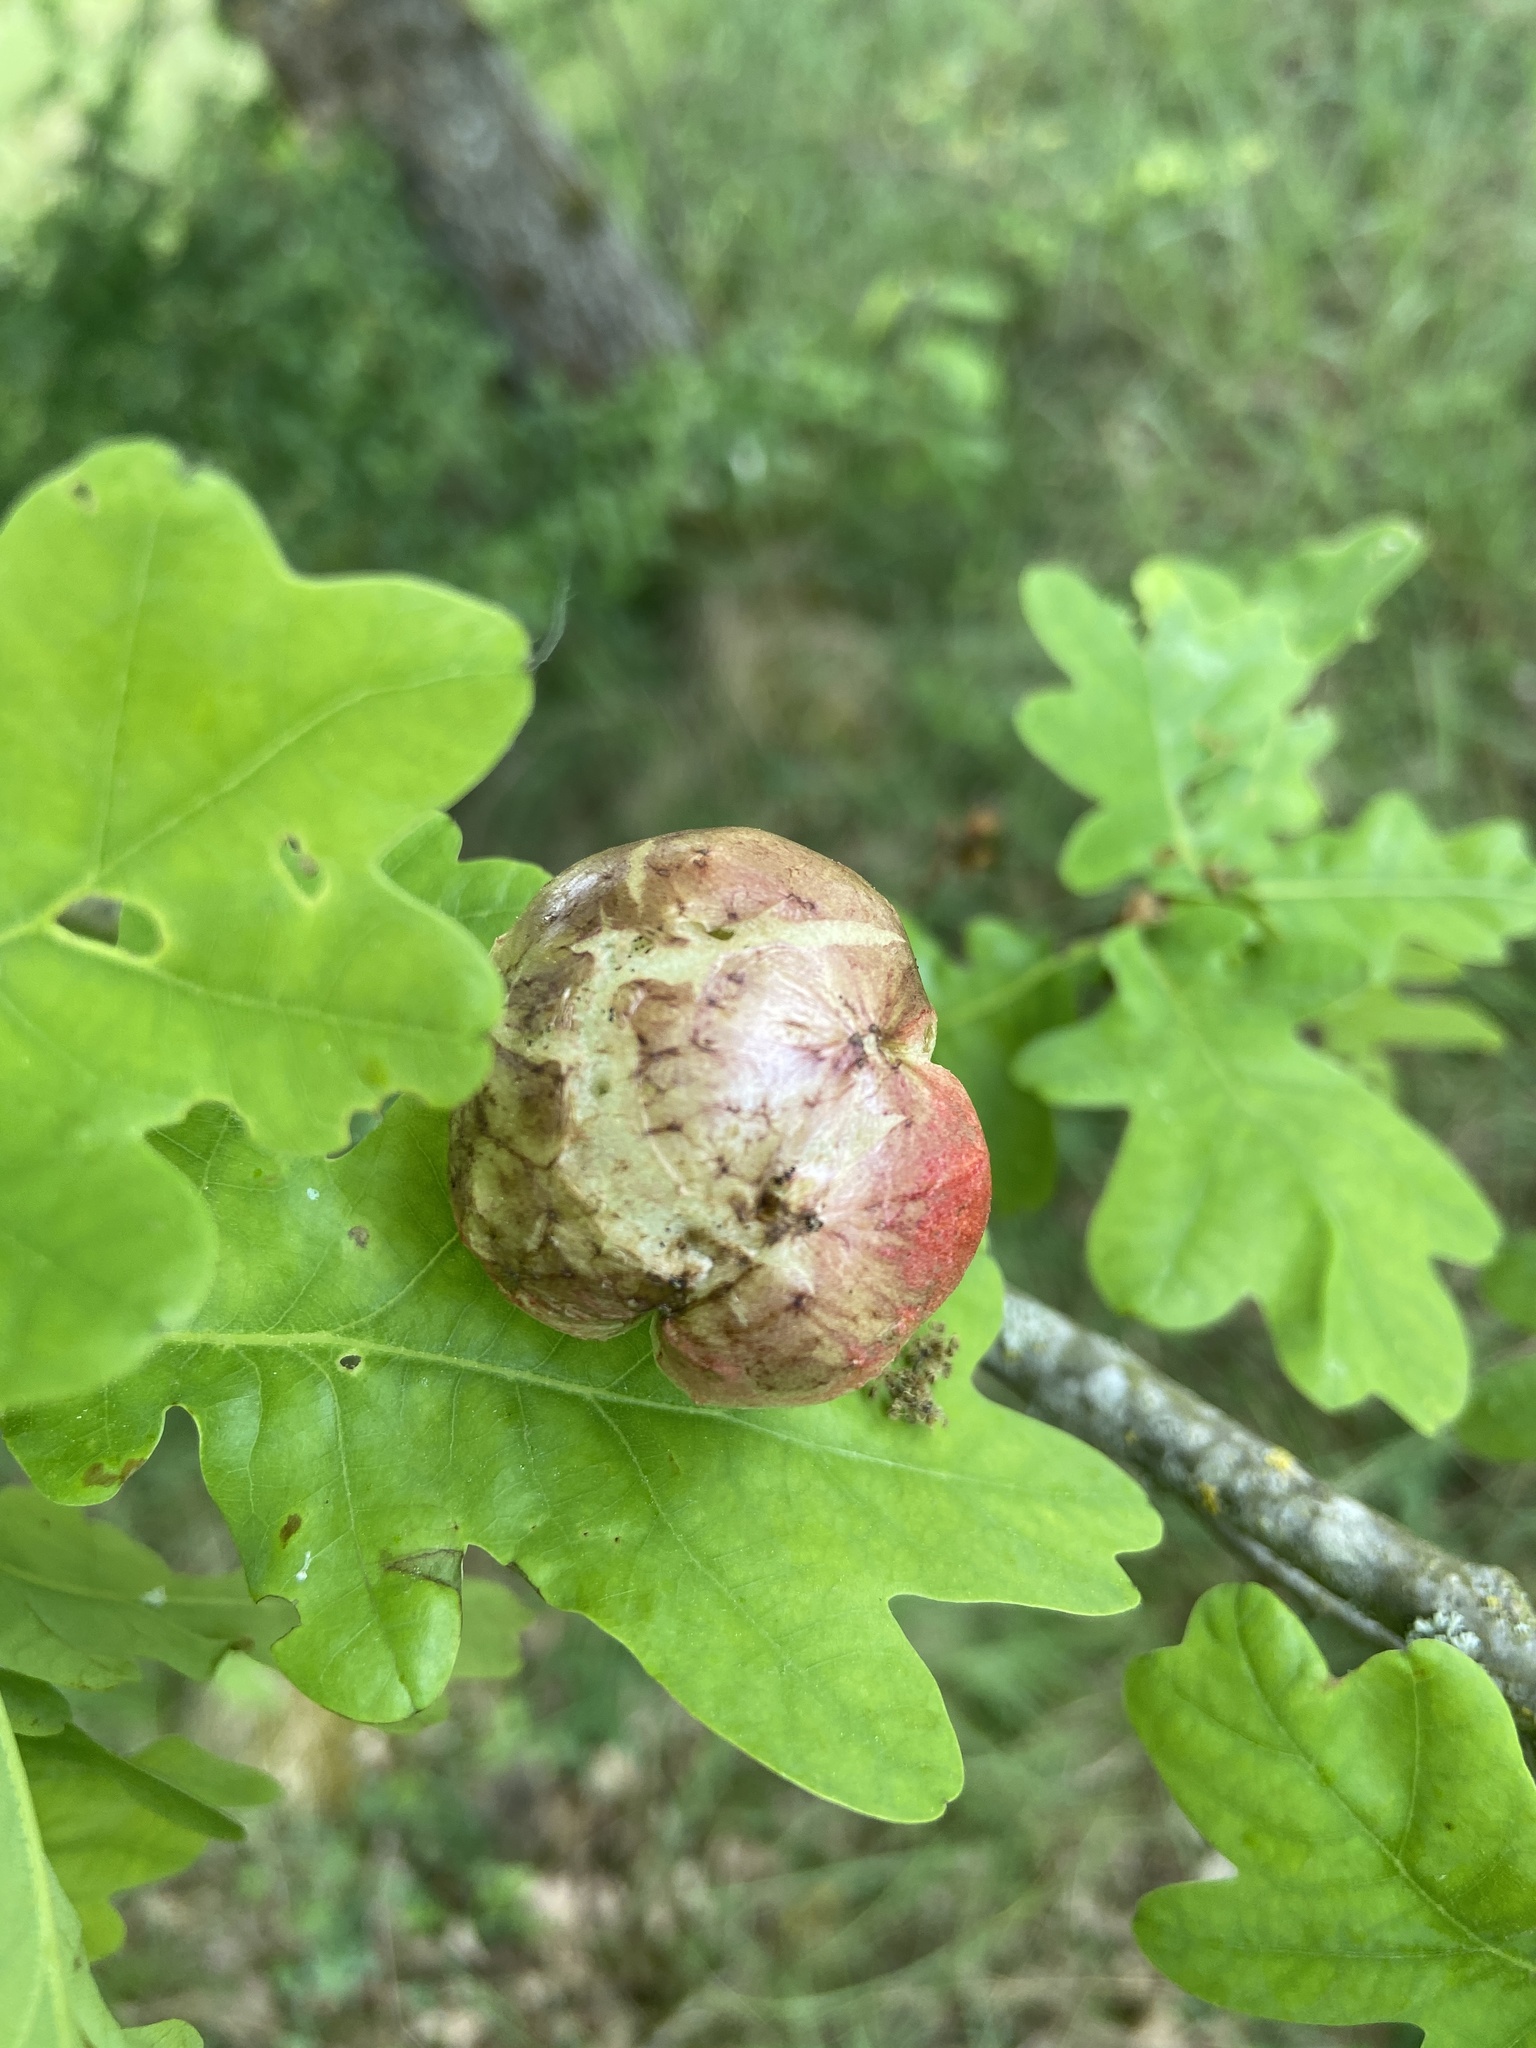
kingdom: Animalia
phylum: Arthropoda
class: Insecta
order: Hymenoptera
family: Cynipidae
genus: Biorhiza
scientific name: Biorhiza pallida
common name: Oak apple
